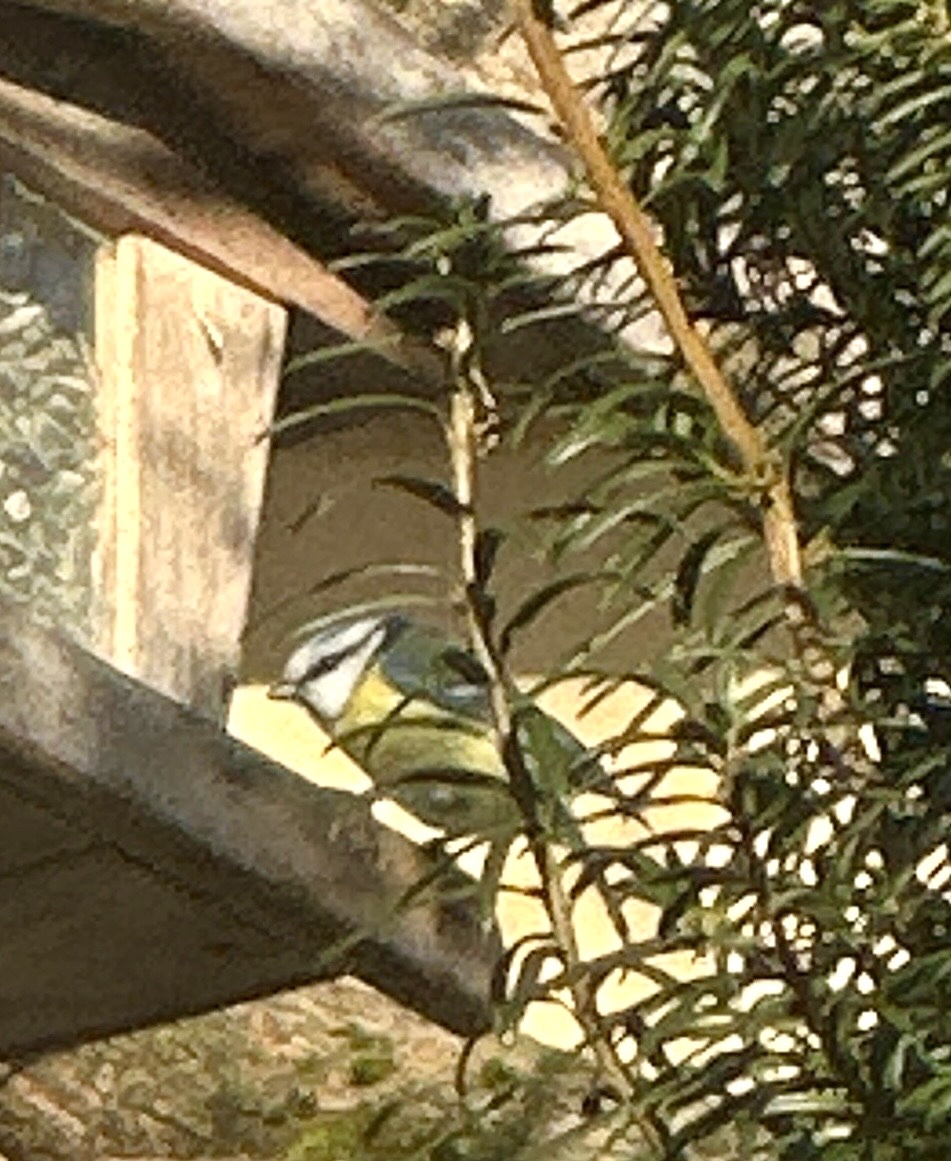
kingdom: Animalia
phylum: Chordata
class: Aves
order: Passeriformes
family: Paridae
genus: Cyanistes
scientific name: Cyanistes caeruleus
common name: Eurasian blue tit
